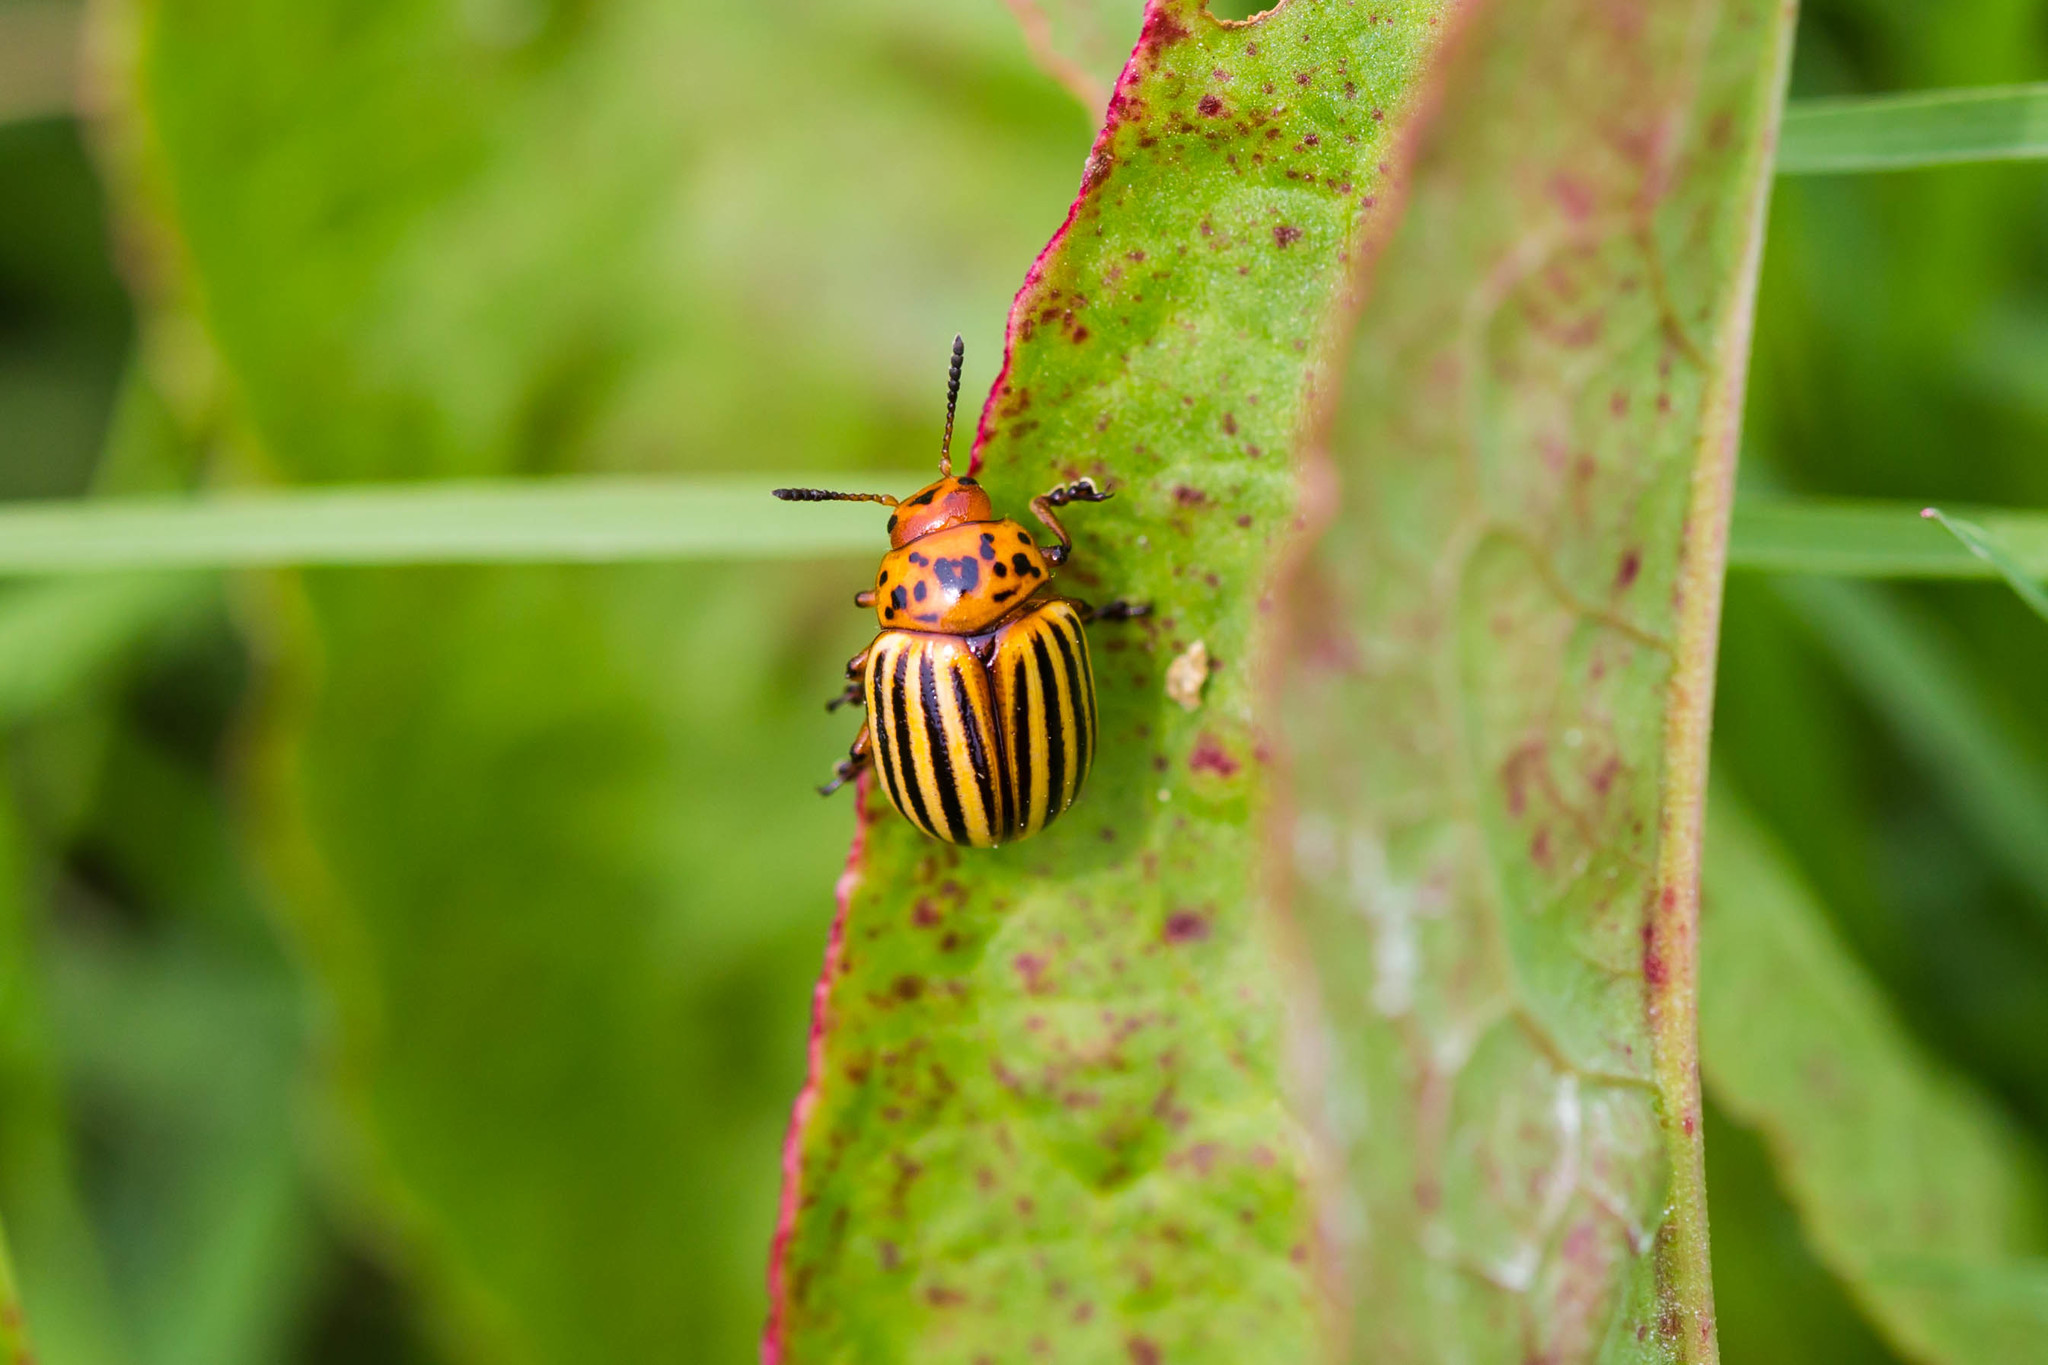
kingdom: Animalia
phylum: Arthropoda
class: Insecta
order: Coleoptera
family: Chrysomelidae
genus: Leptinotarsa
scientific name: Leptinotarsa decemlineata
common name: Colorado potato beetle
